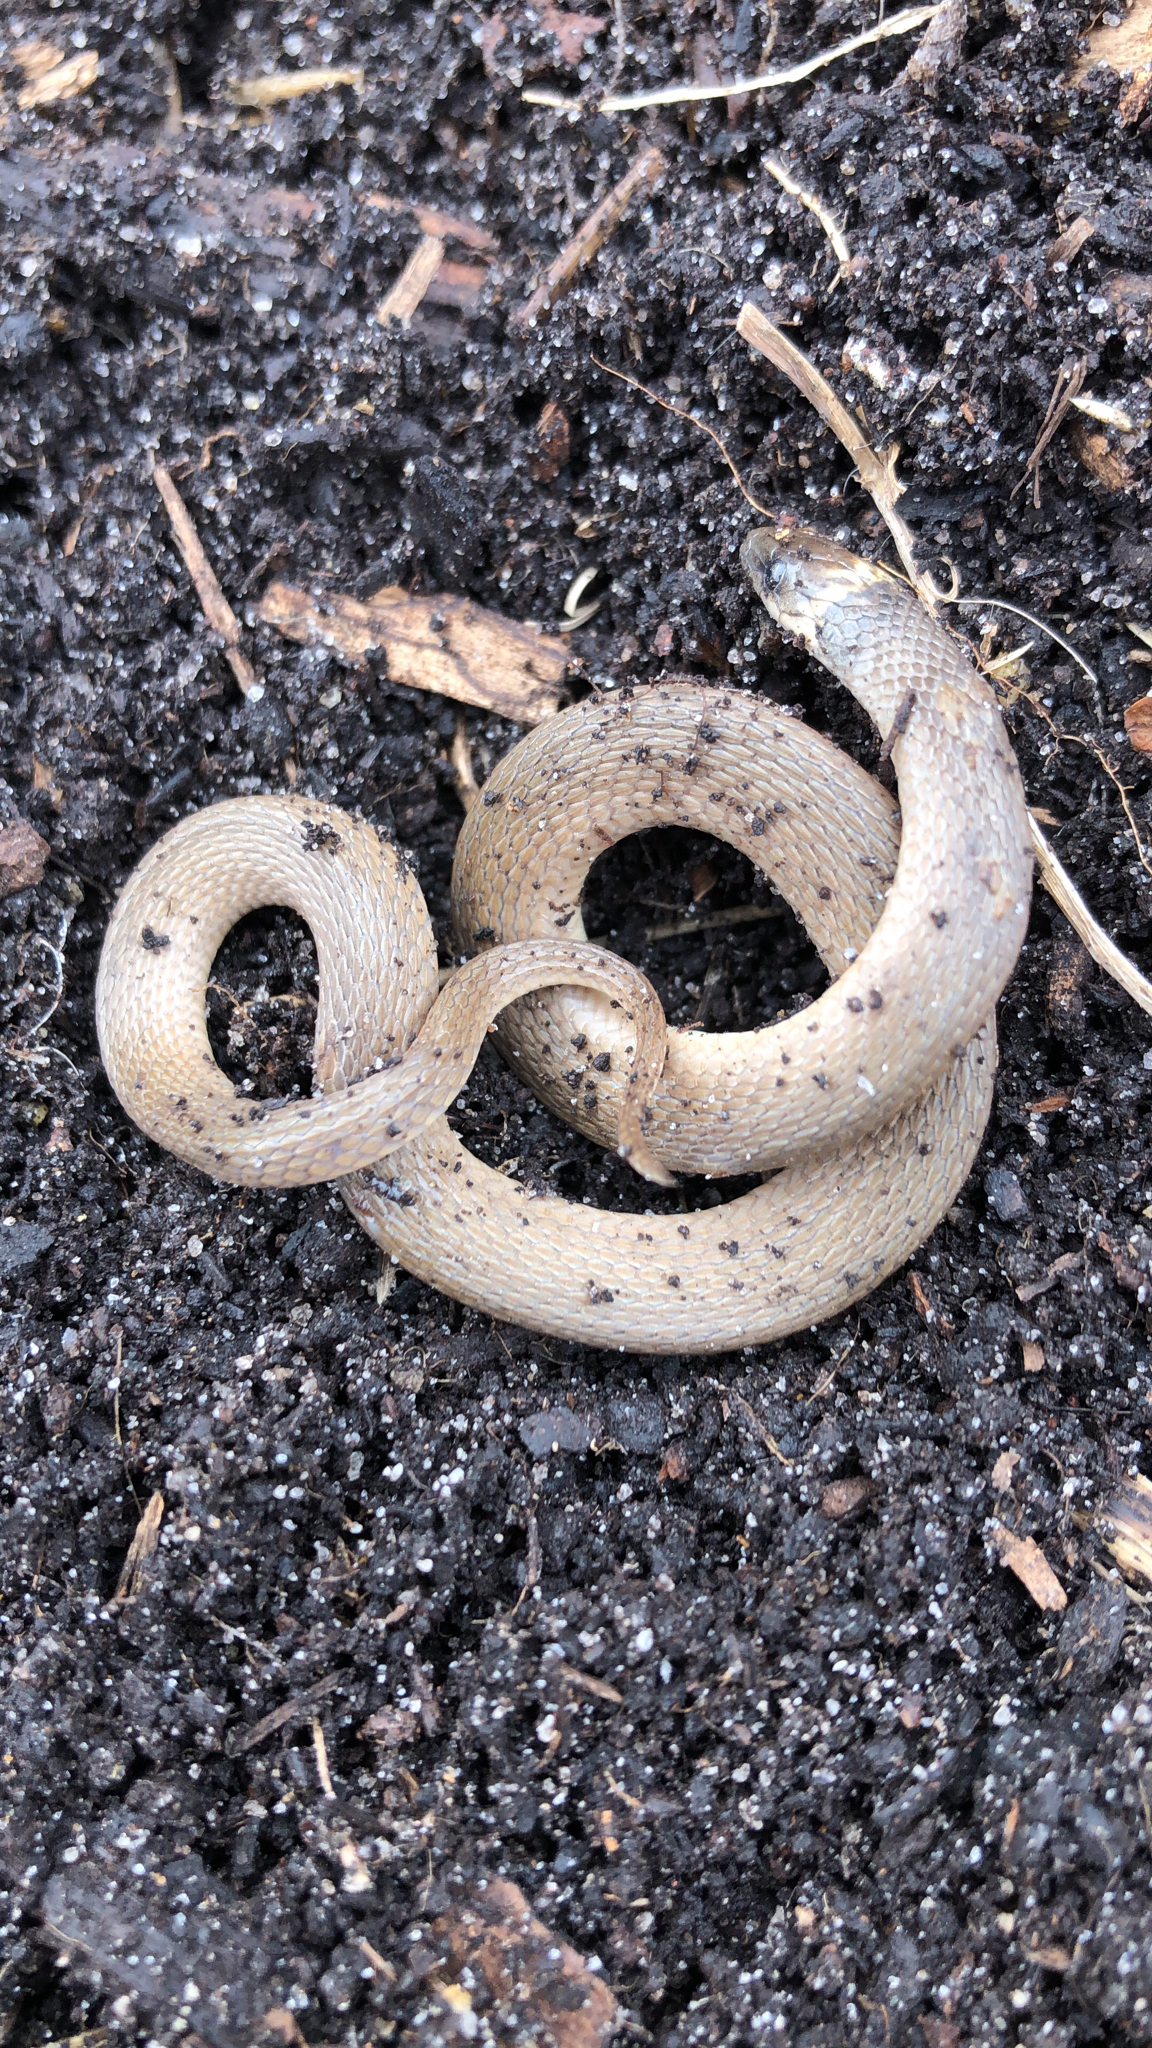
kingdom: Animalia
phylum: Chordata
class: Squamata
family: Colubridae
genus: Haldea
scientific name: Haldea striatula
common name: Rough earth snake
